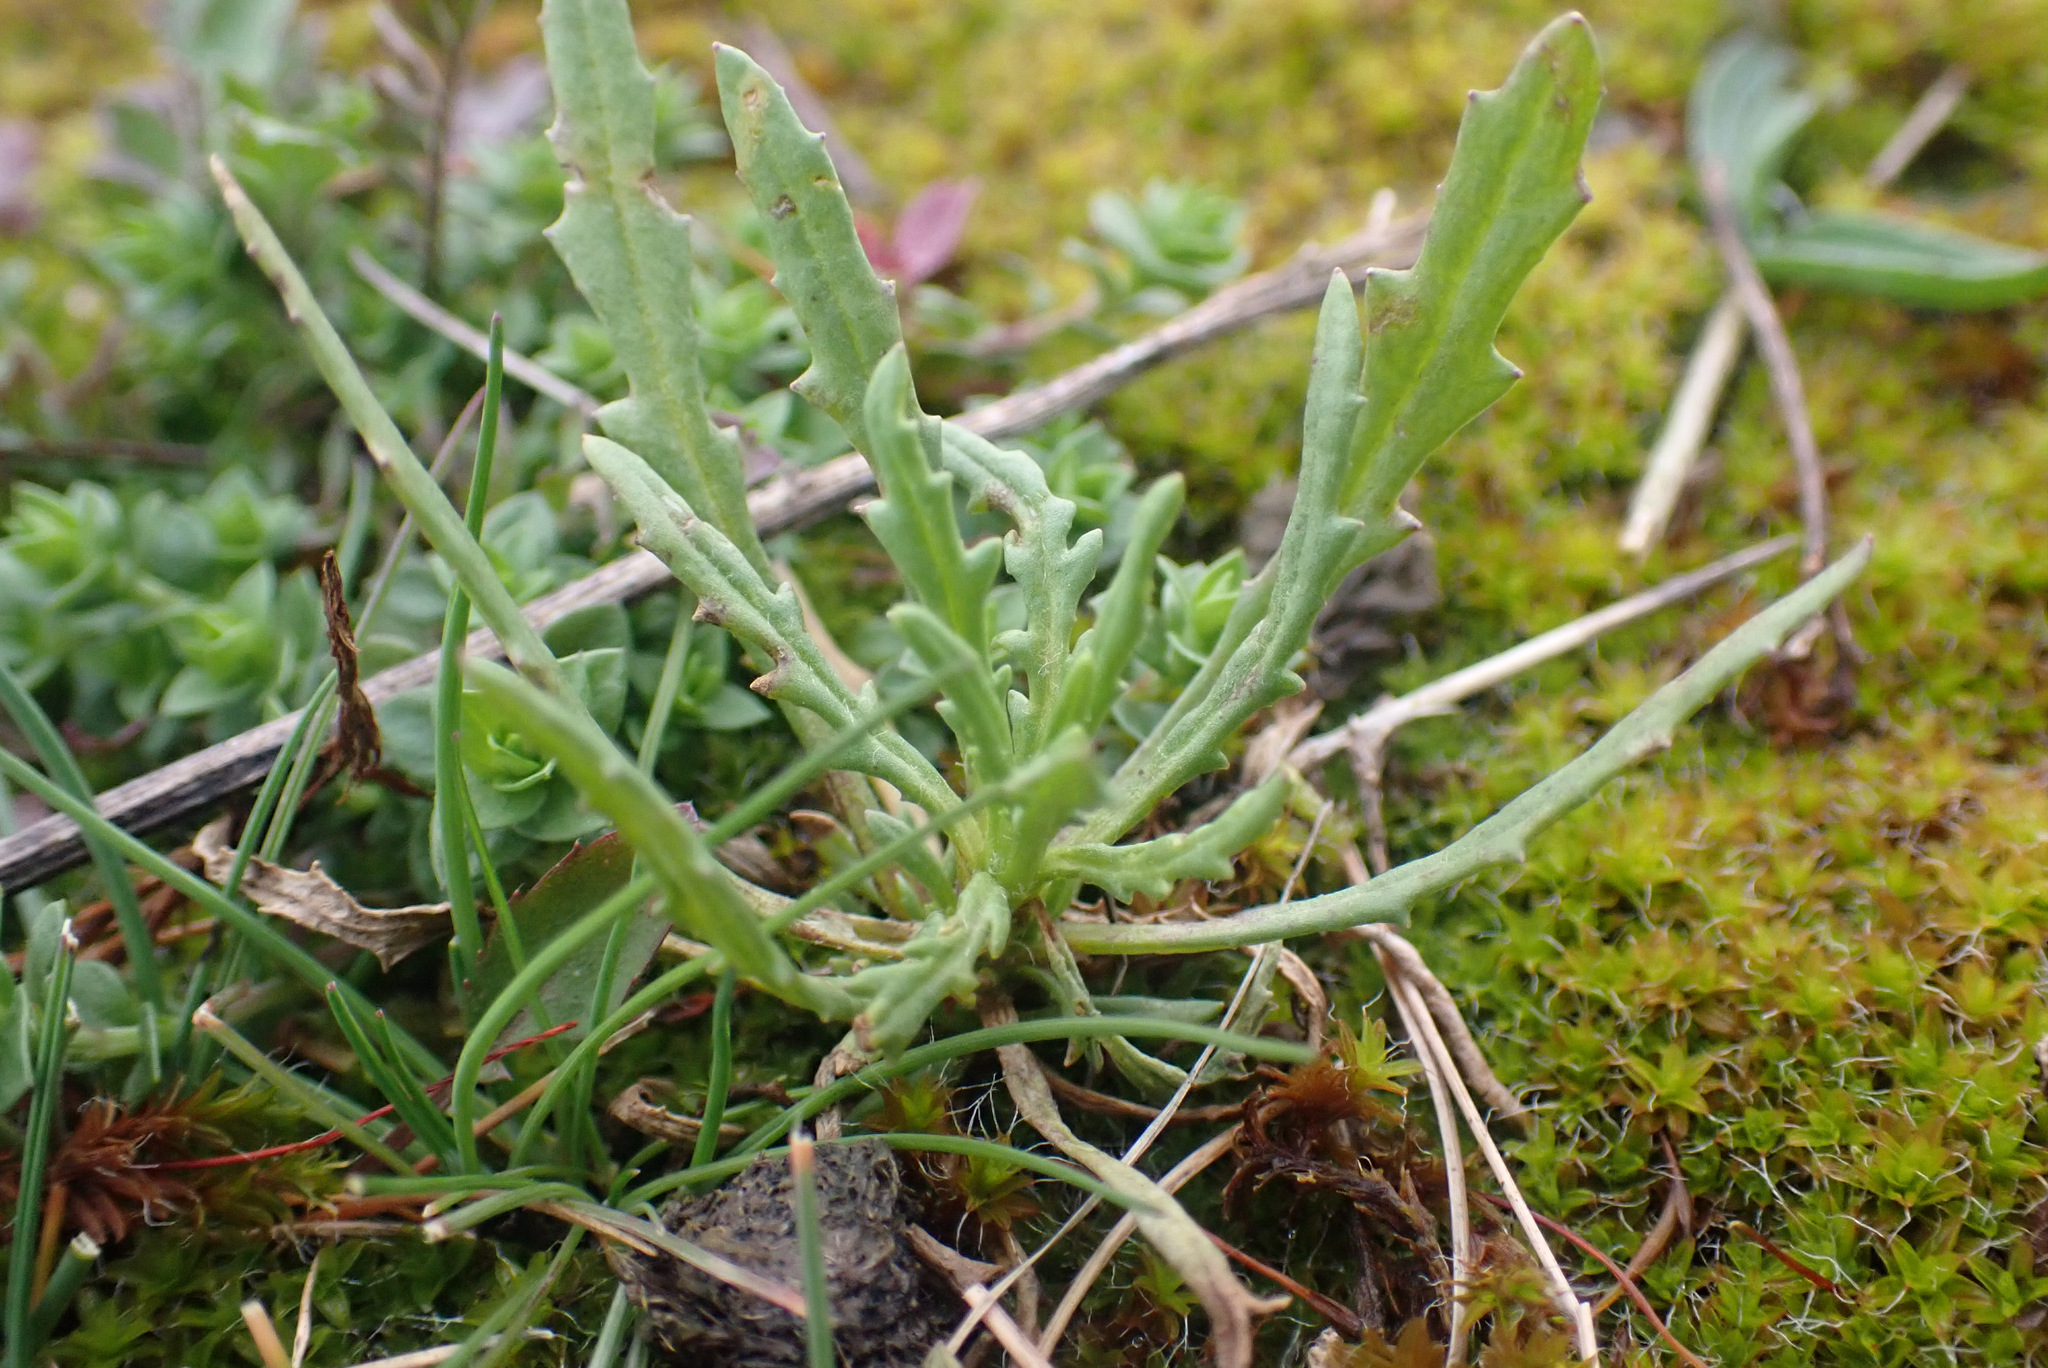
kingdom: Plantae
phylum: Tracheophyta
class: Magnoliopsida
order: Asterales
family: Asteraceae
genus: Senecio
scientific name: Senecio inaequidens
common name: Narrow-leaved ragwort
